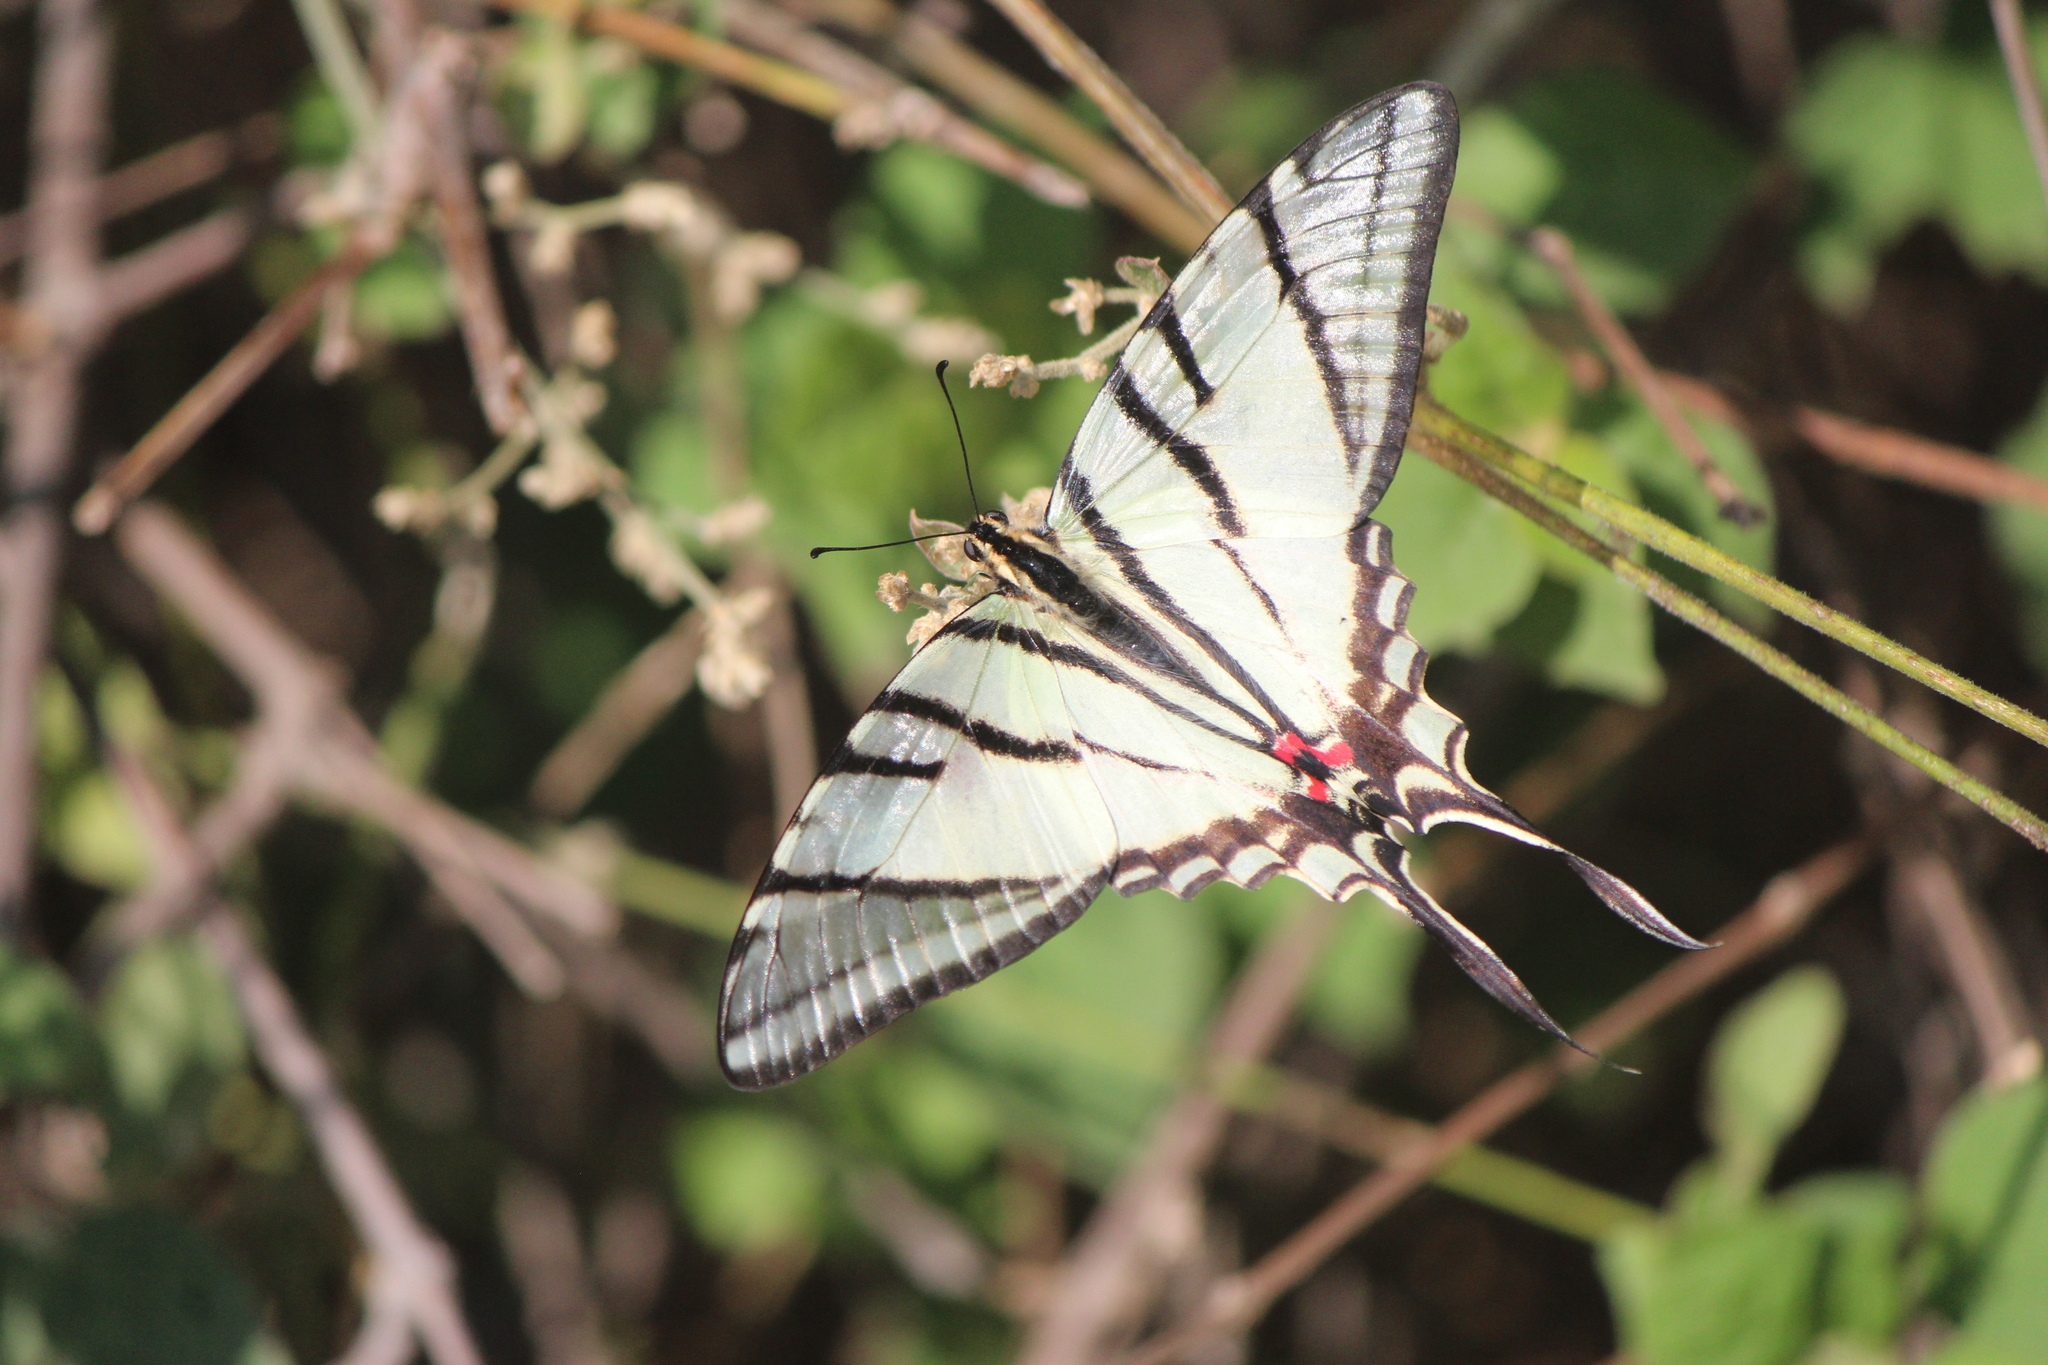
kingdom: Animalia
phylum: Arthropoda
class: Insecta
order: Lepidoptera
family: Papilionidae
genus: Protographium
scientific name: Protographium epidaus
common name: Mexican kite swallowtail
